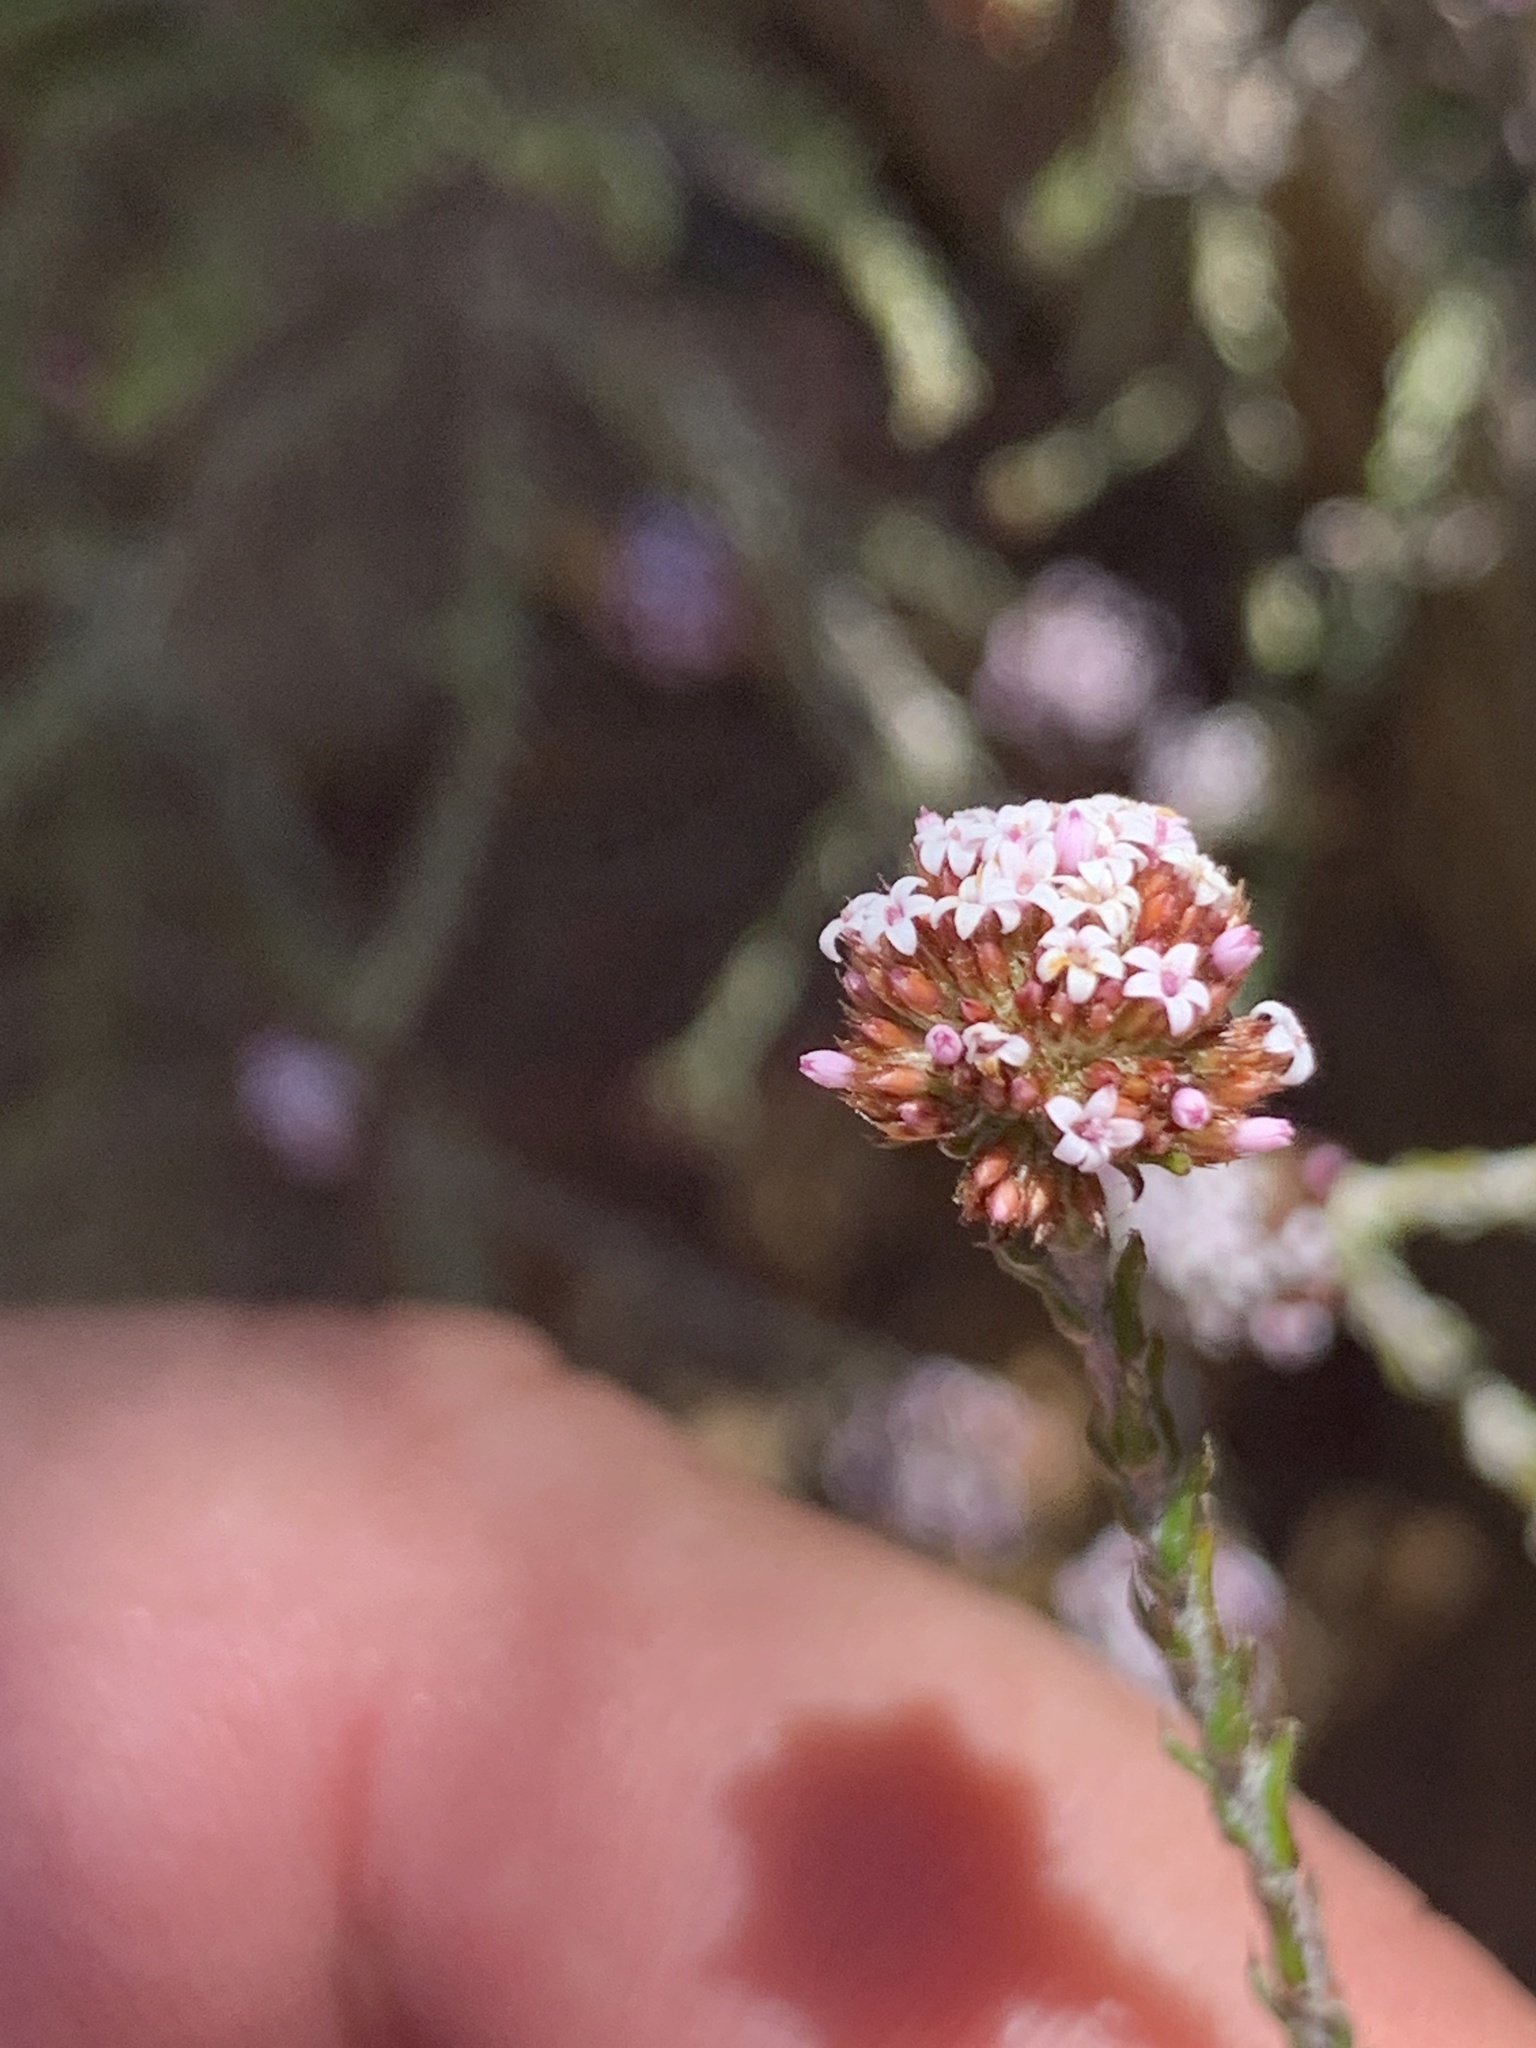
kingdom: Plantae
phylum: Tracheophyta
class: Magnoliopsida
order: Asterales
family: Asteraceae
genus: Stoebe
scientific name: Stoebe capitata
